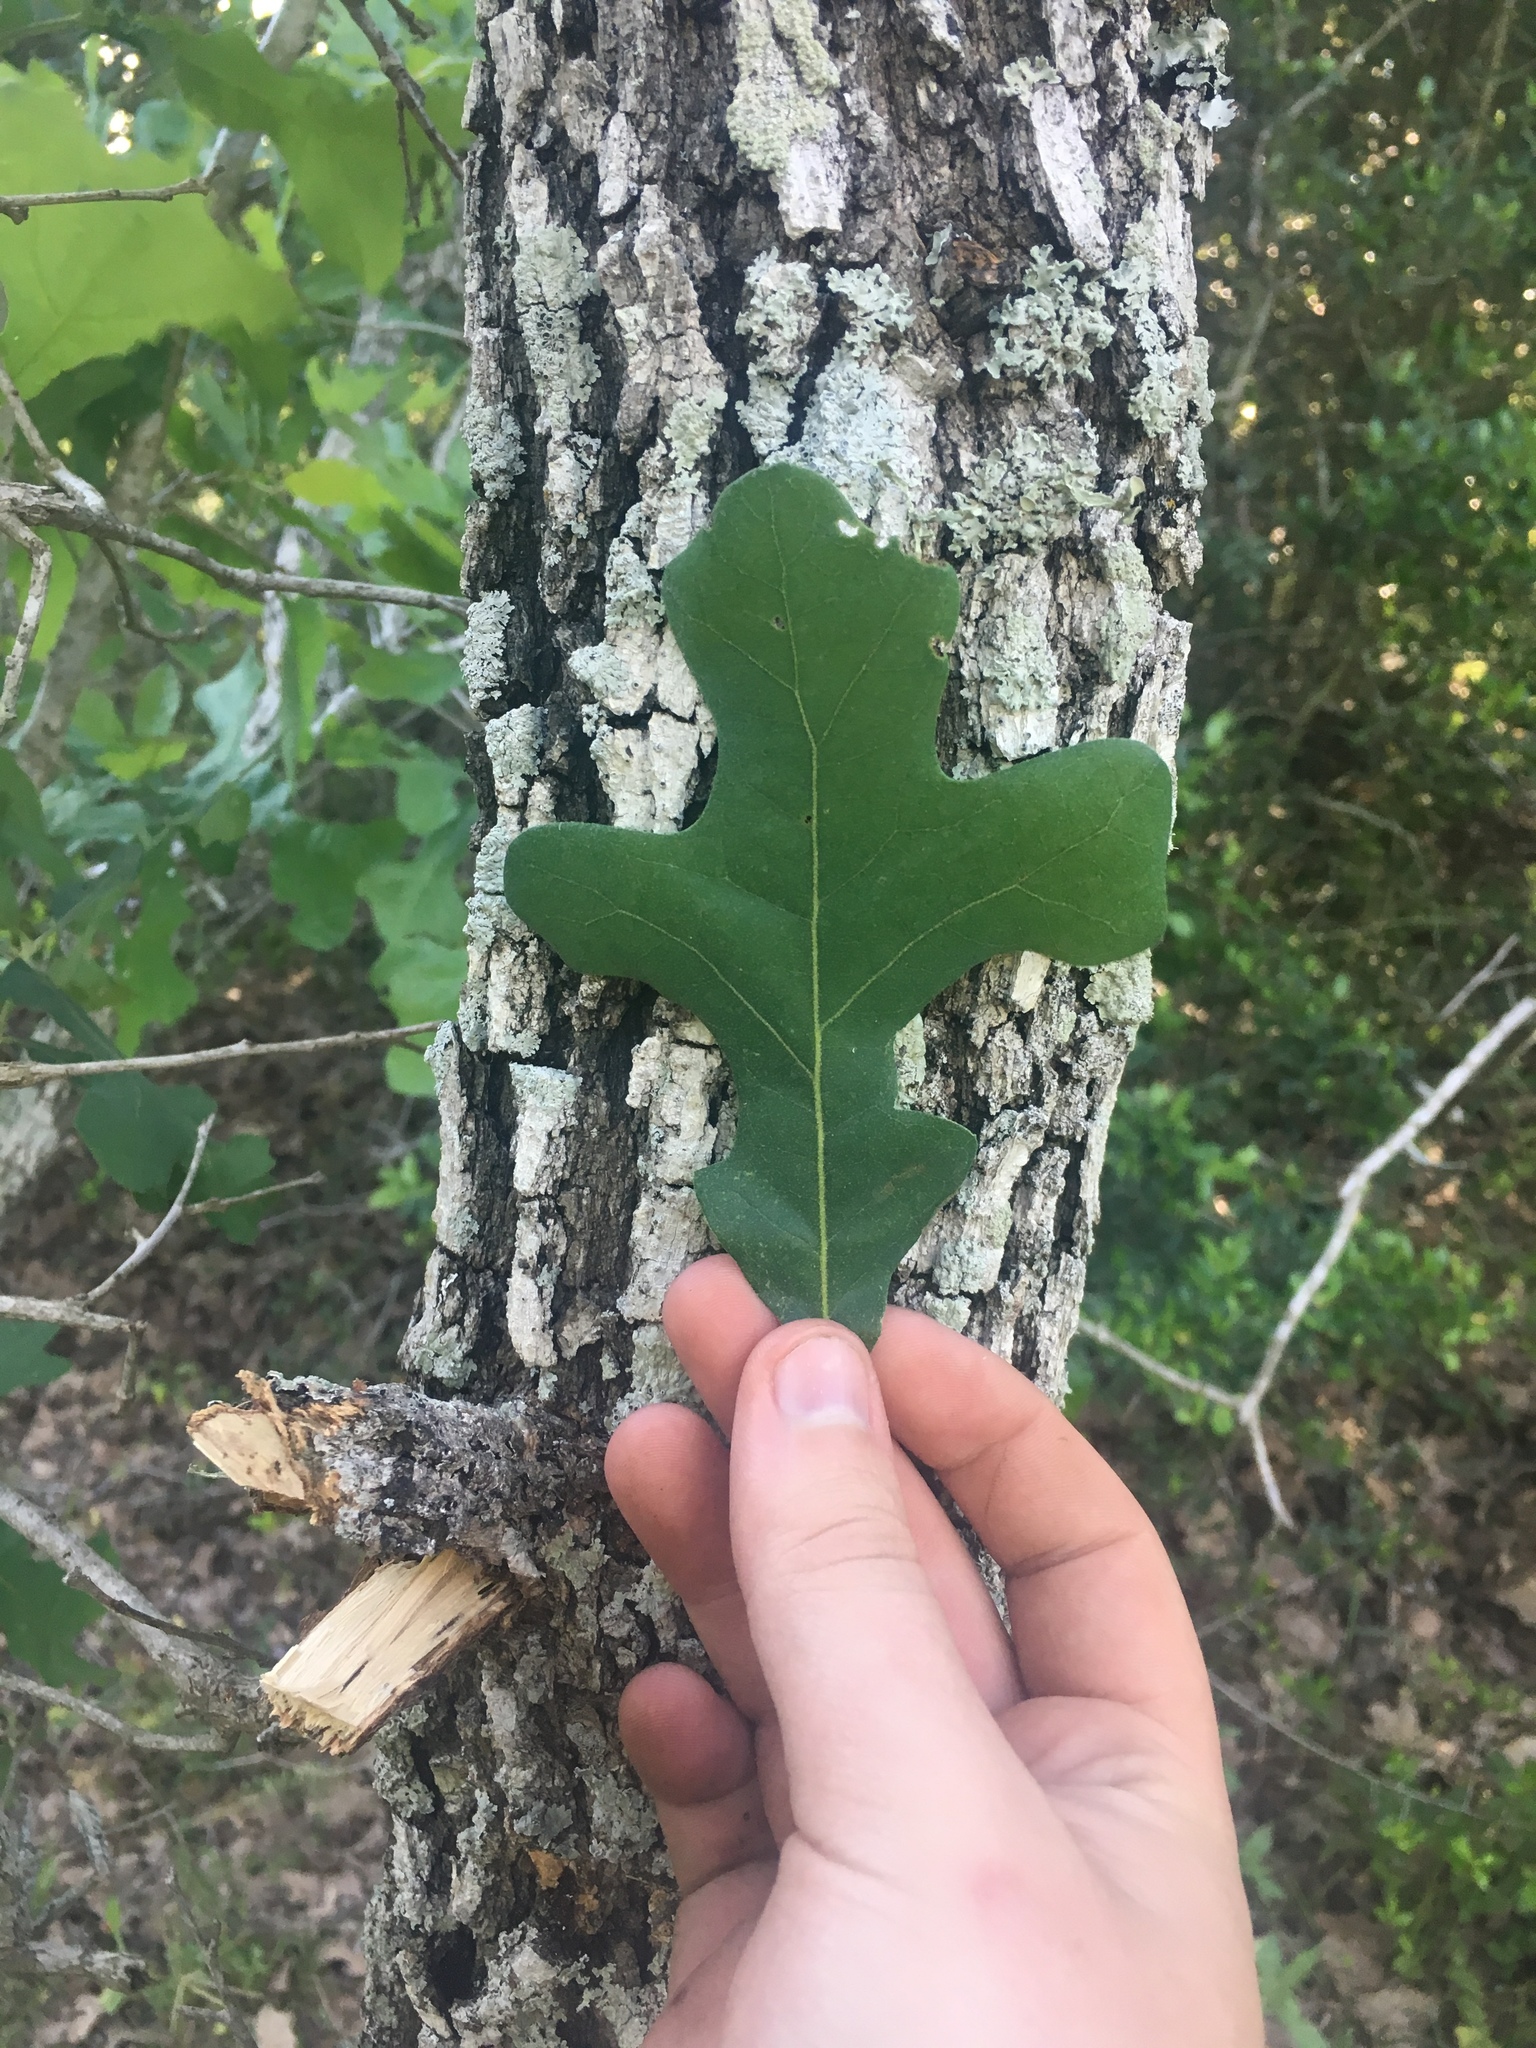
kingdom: Plantae
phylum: Tracheophyta
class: Magnoliopsida
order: Fagales
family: Fagaceae
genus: Quercus
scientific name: Quercus stellata
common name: Post oak
